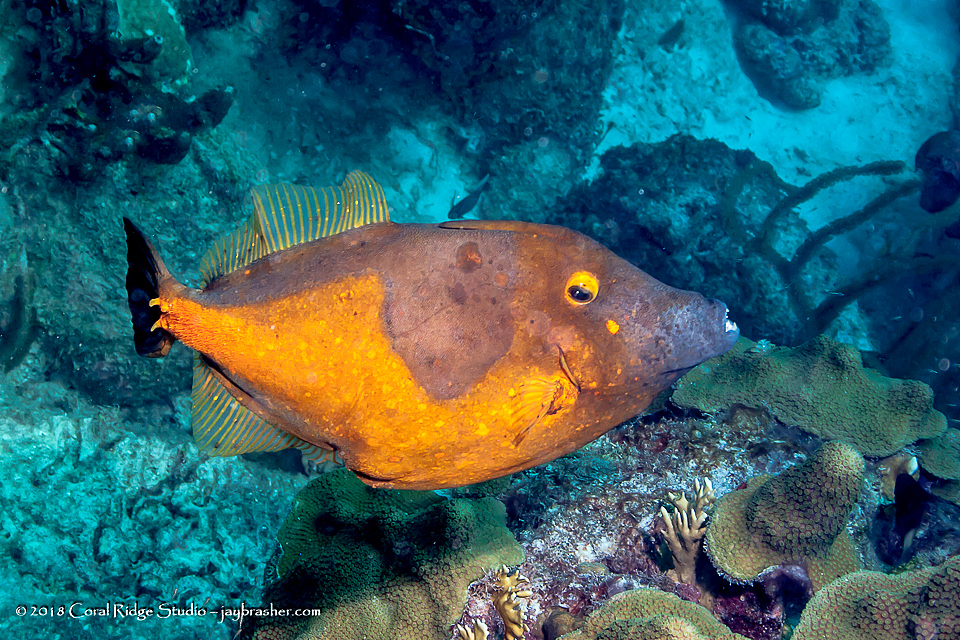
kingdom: Animalia
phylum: Chordata
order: Tetraodontiformes
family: Monacanthidae
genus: Cantherhines
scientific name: Cantherhines macrocerus
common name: Whitespotted filefish
